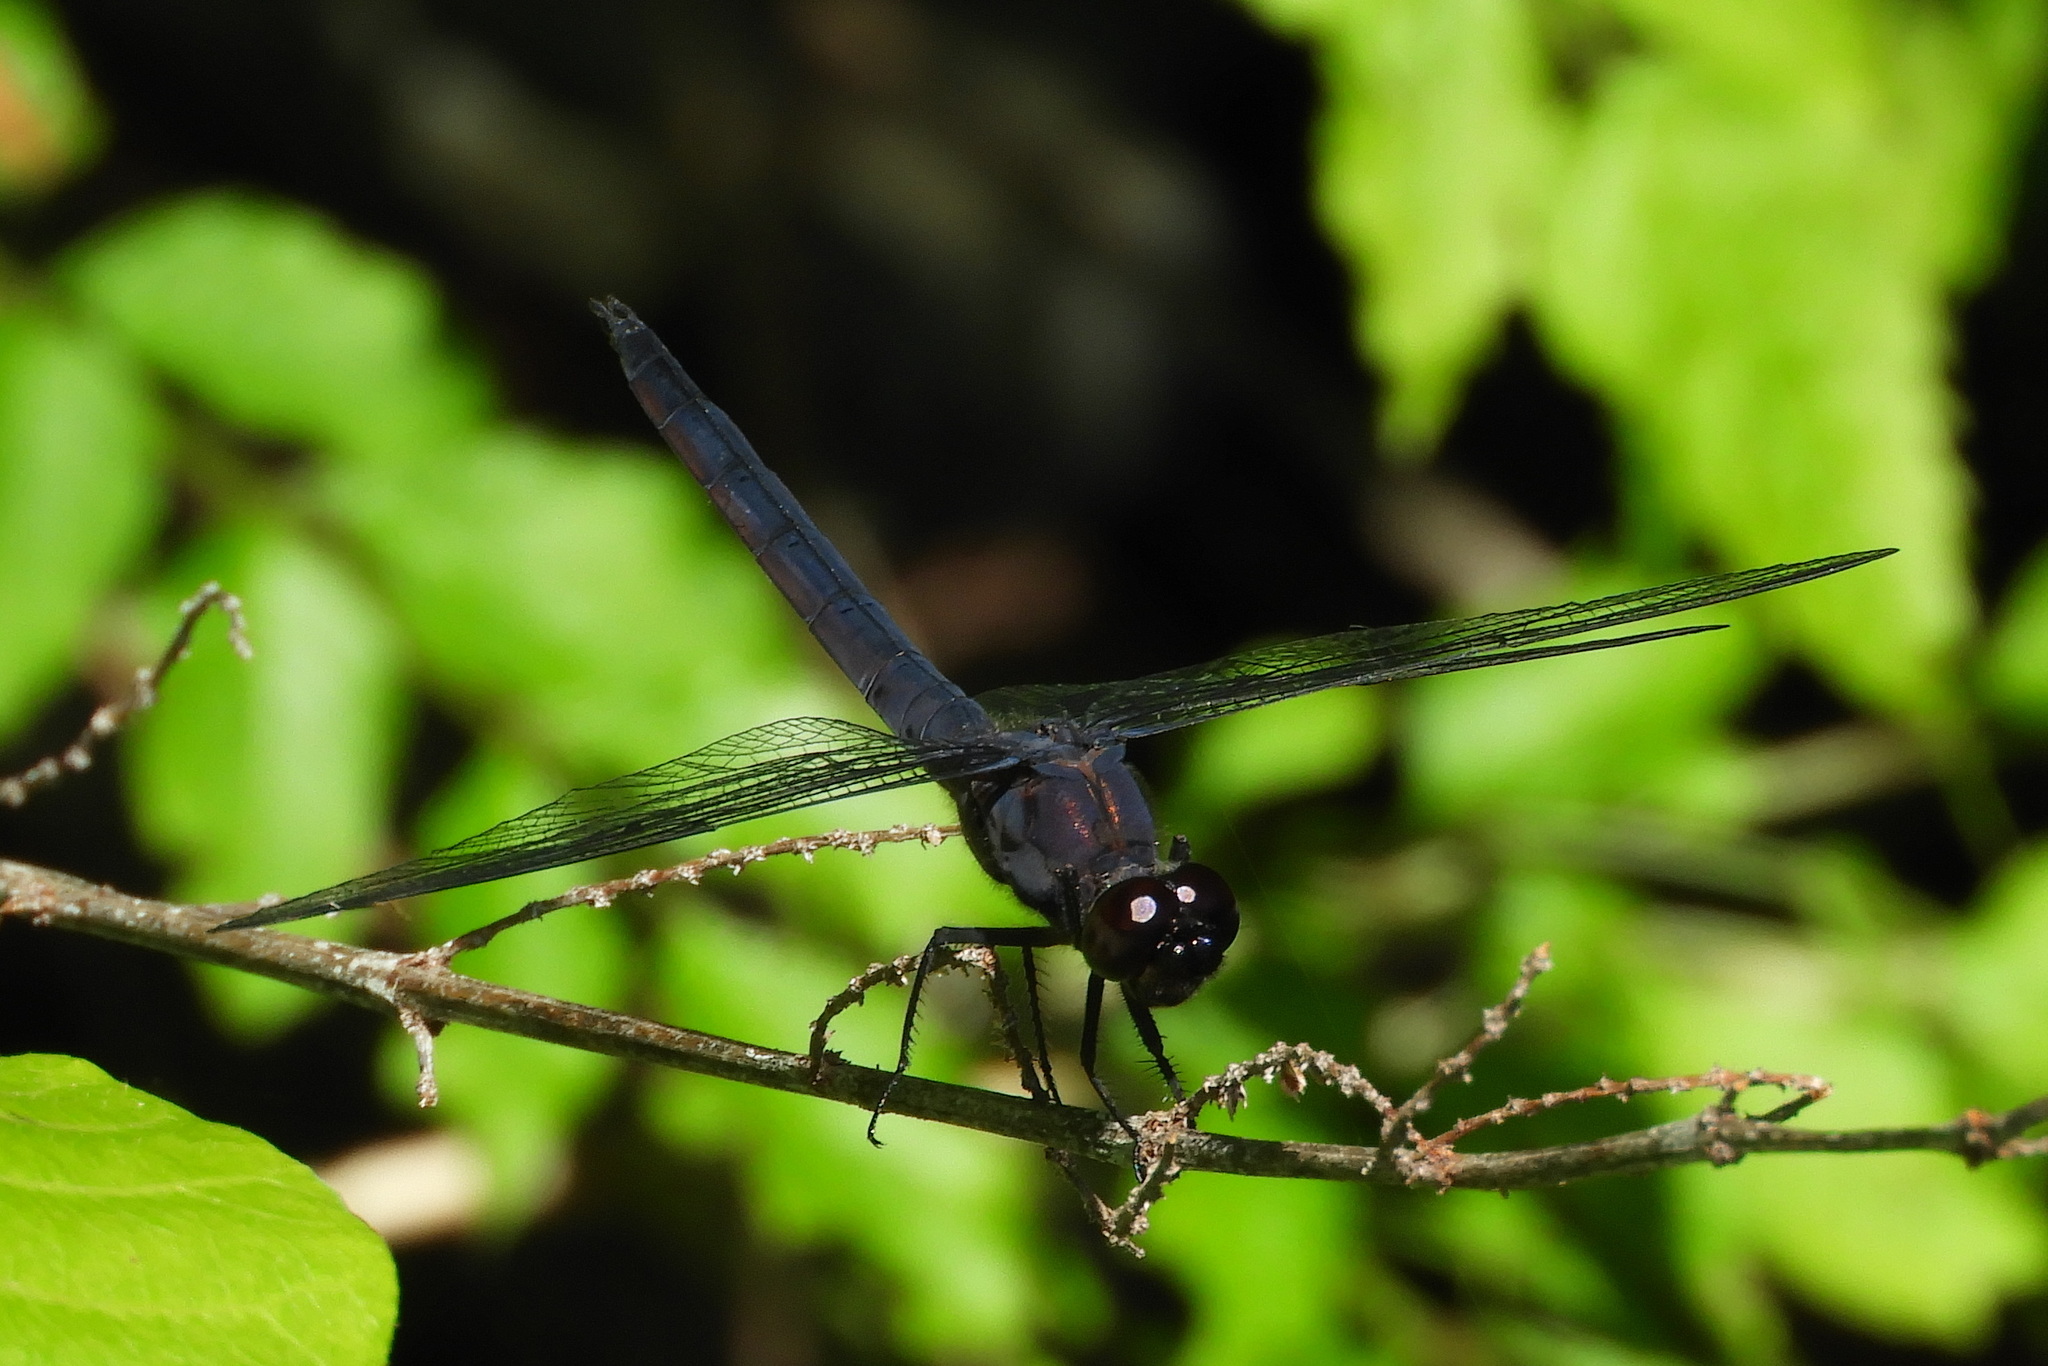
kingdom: Animalia
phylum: Arthropoda
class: Insecta
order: Odonata
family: Libellulidae
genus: Libellula
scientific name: Libellula incesta
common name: Slaty skimmer
